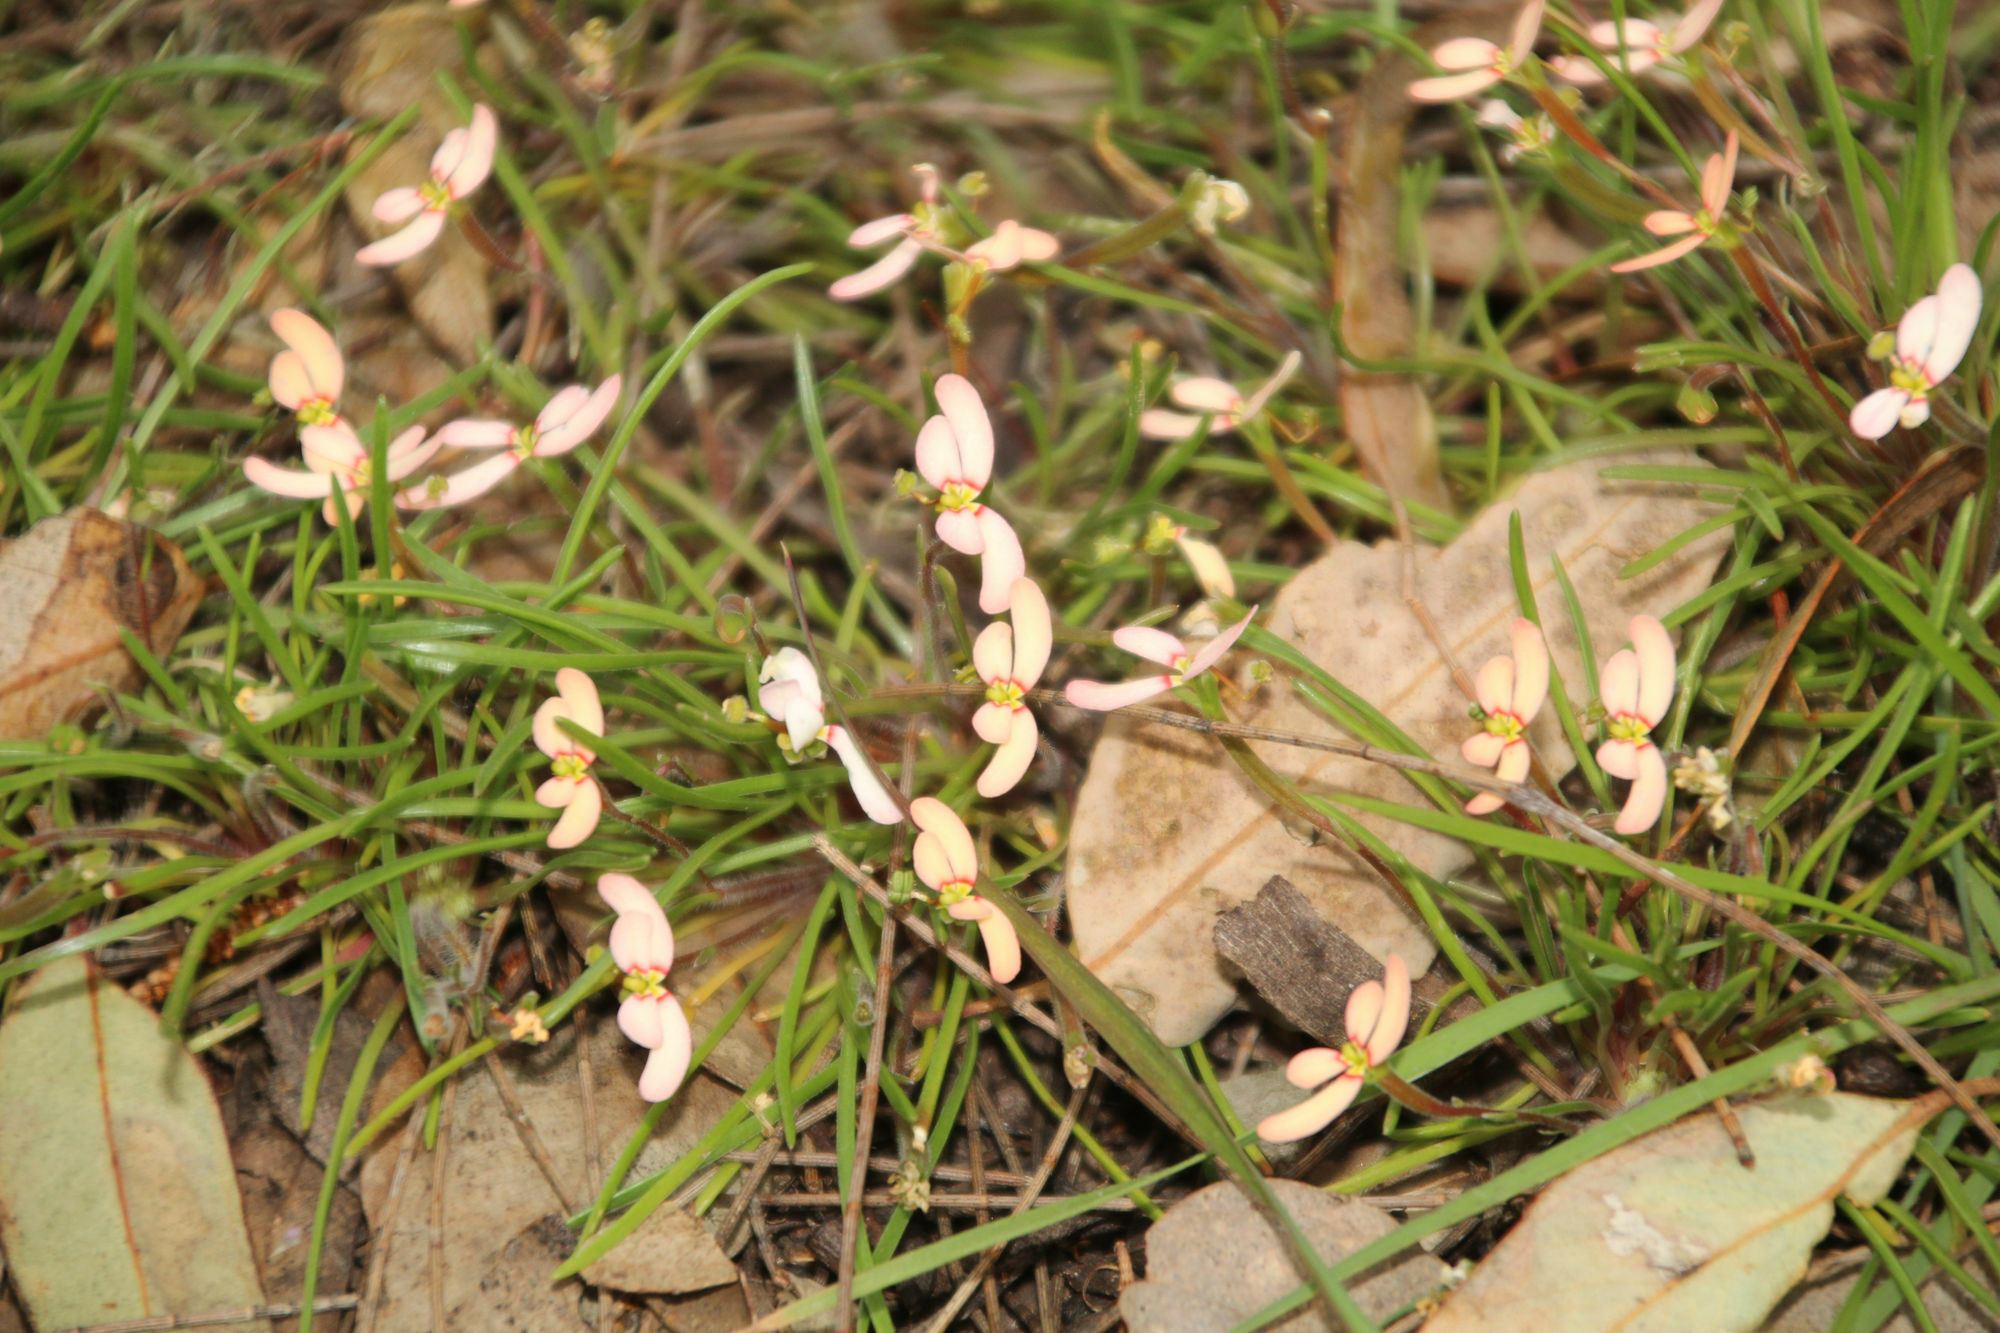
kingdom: Plantae
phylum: Tracheophyta
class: Magnoliopsida
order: Asterales
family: Stylidiaceae
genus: Stylidium
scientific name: Stylidium uniflorum
